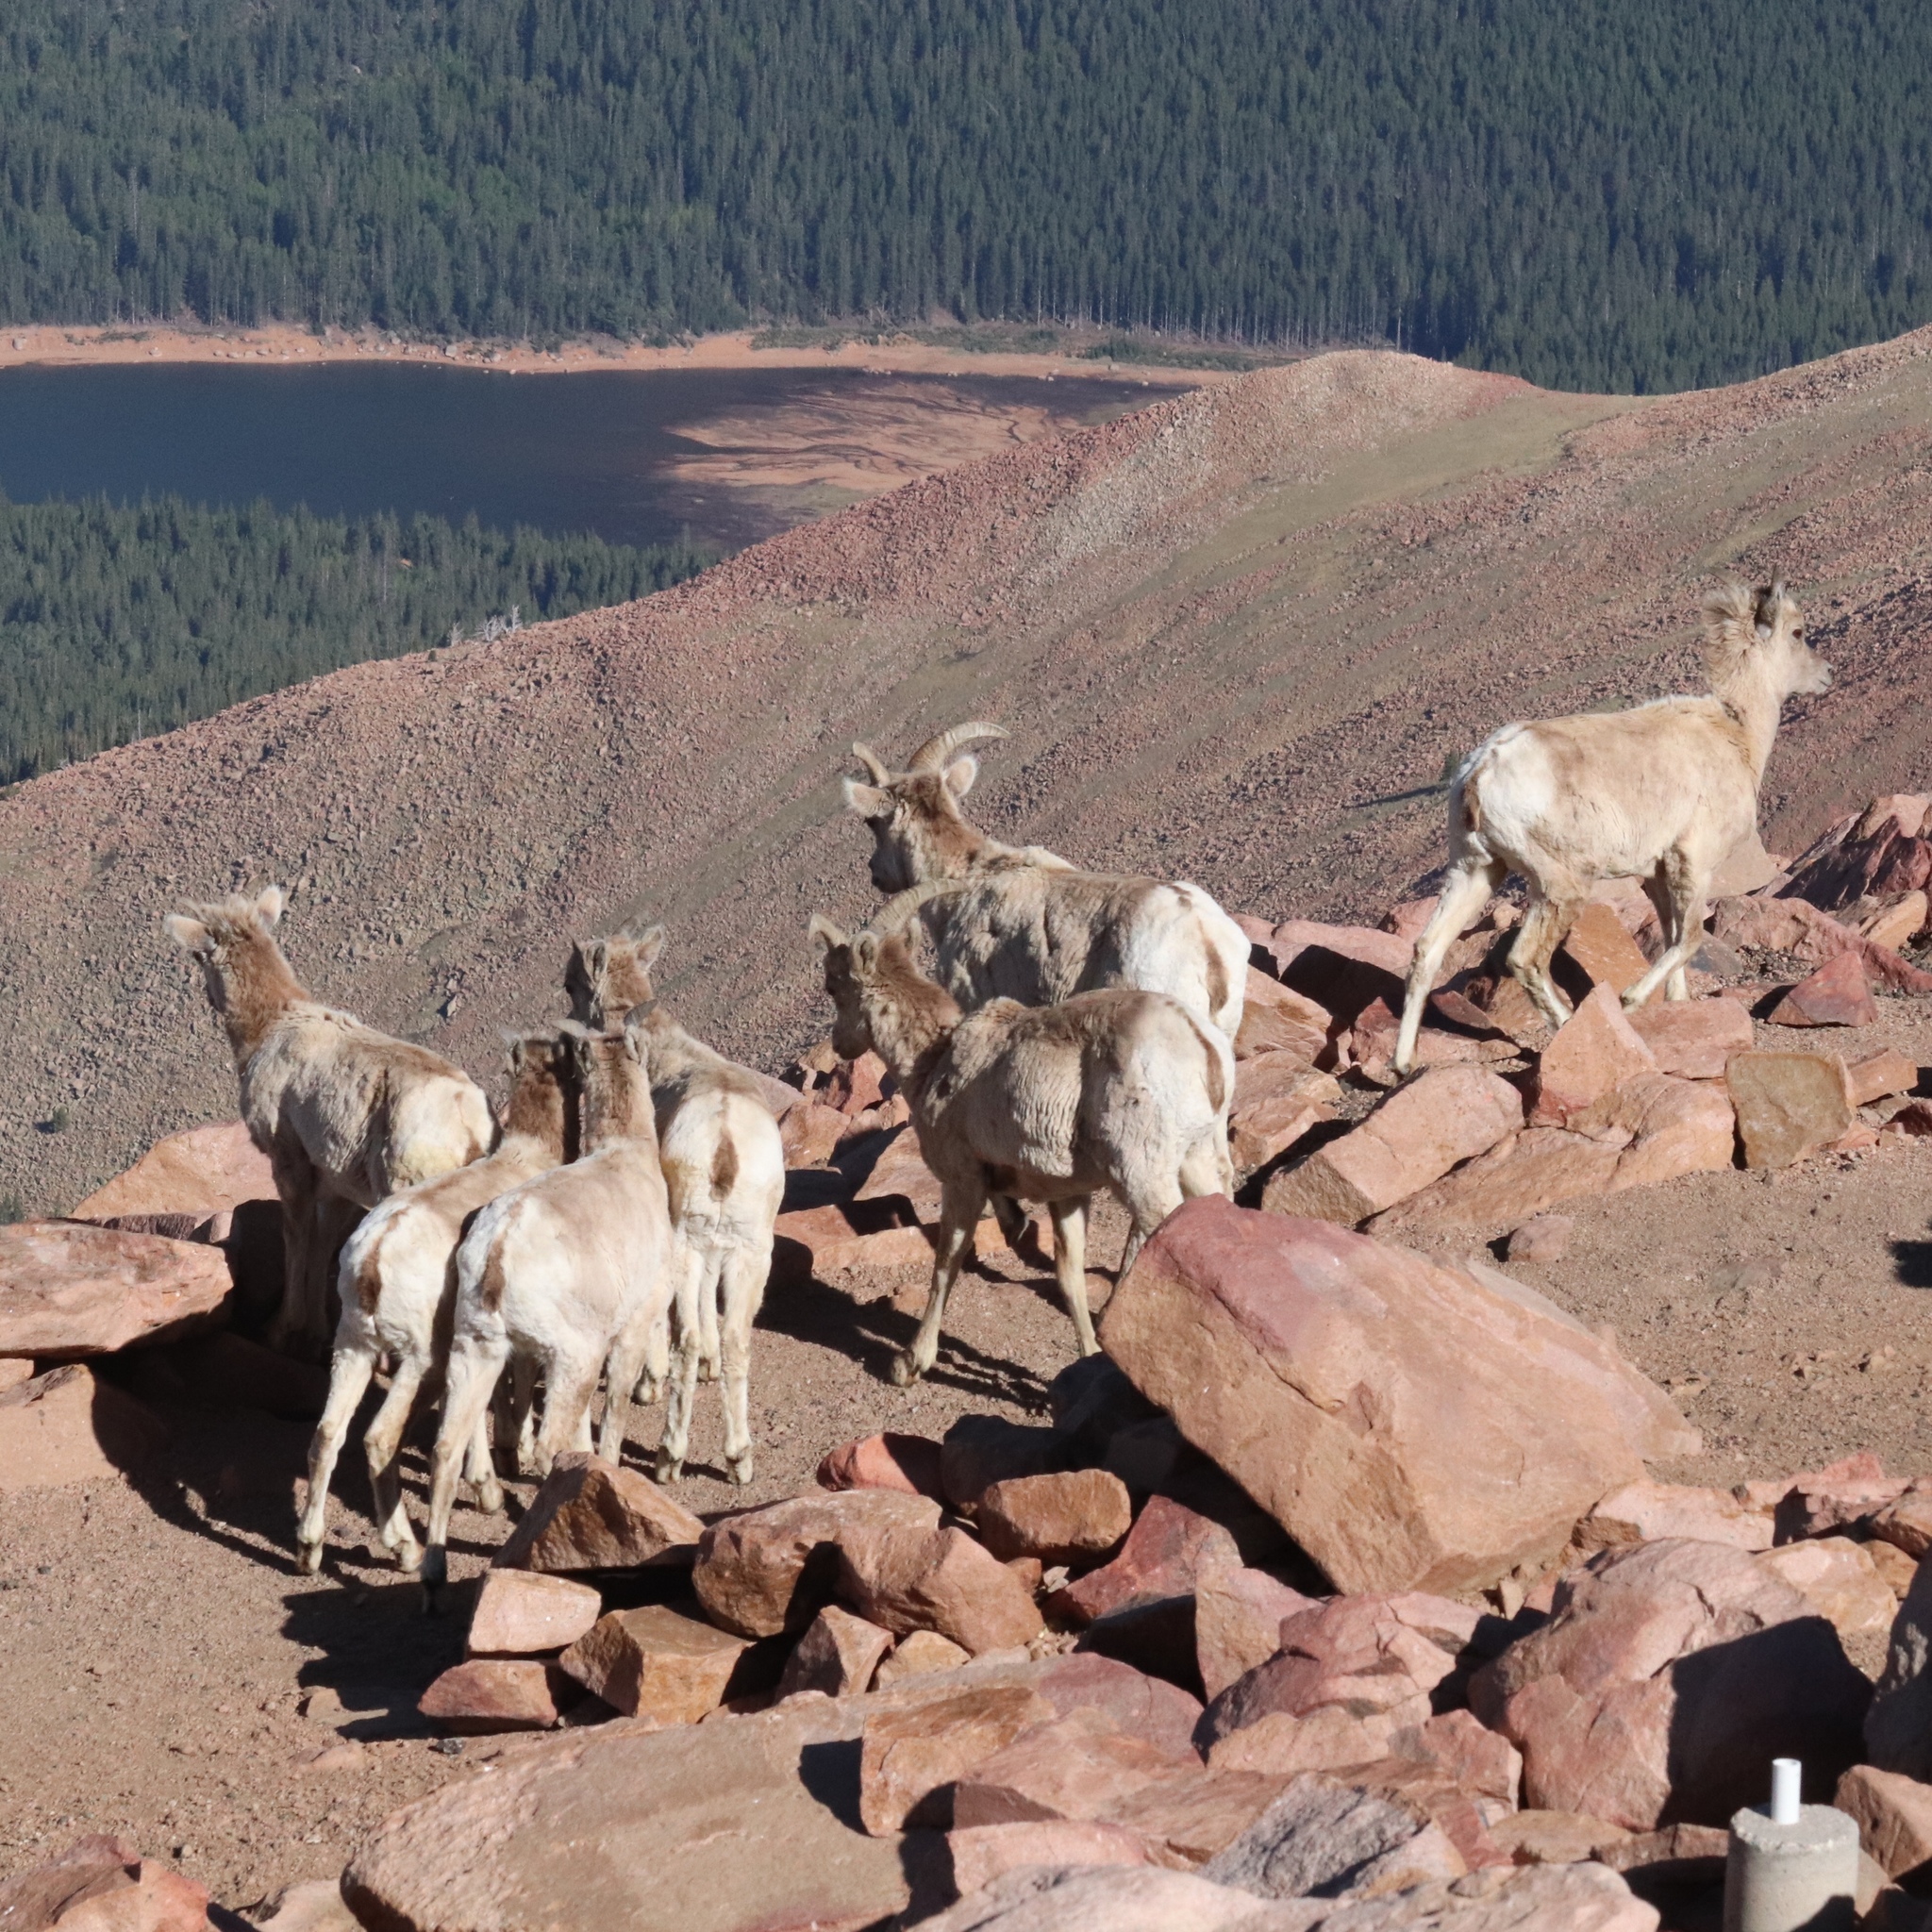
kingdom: Animalia
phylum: Chordata
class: Mammalia
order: Artiodactyla
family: Bovidae
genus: Ovis
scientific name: Ovis canadensis
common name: Bighorn sheep
